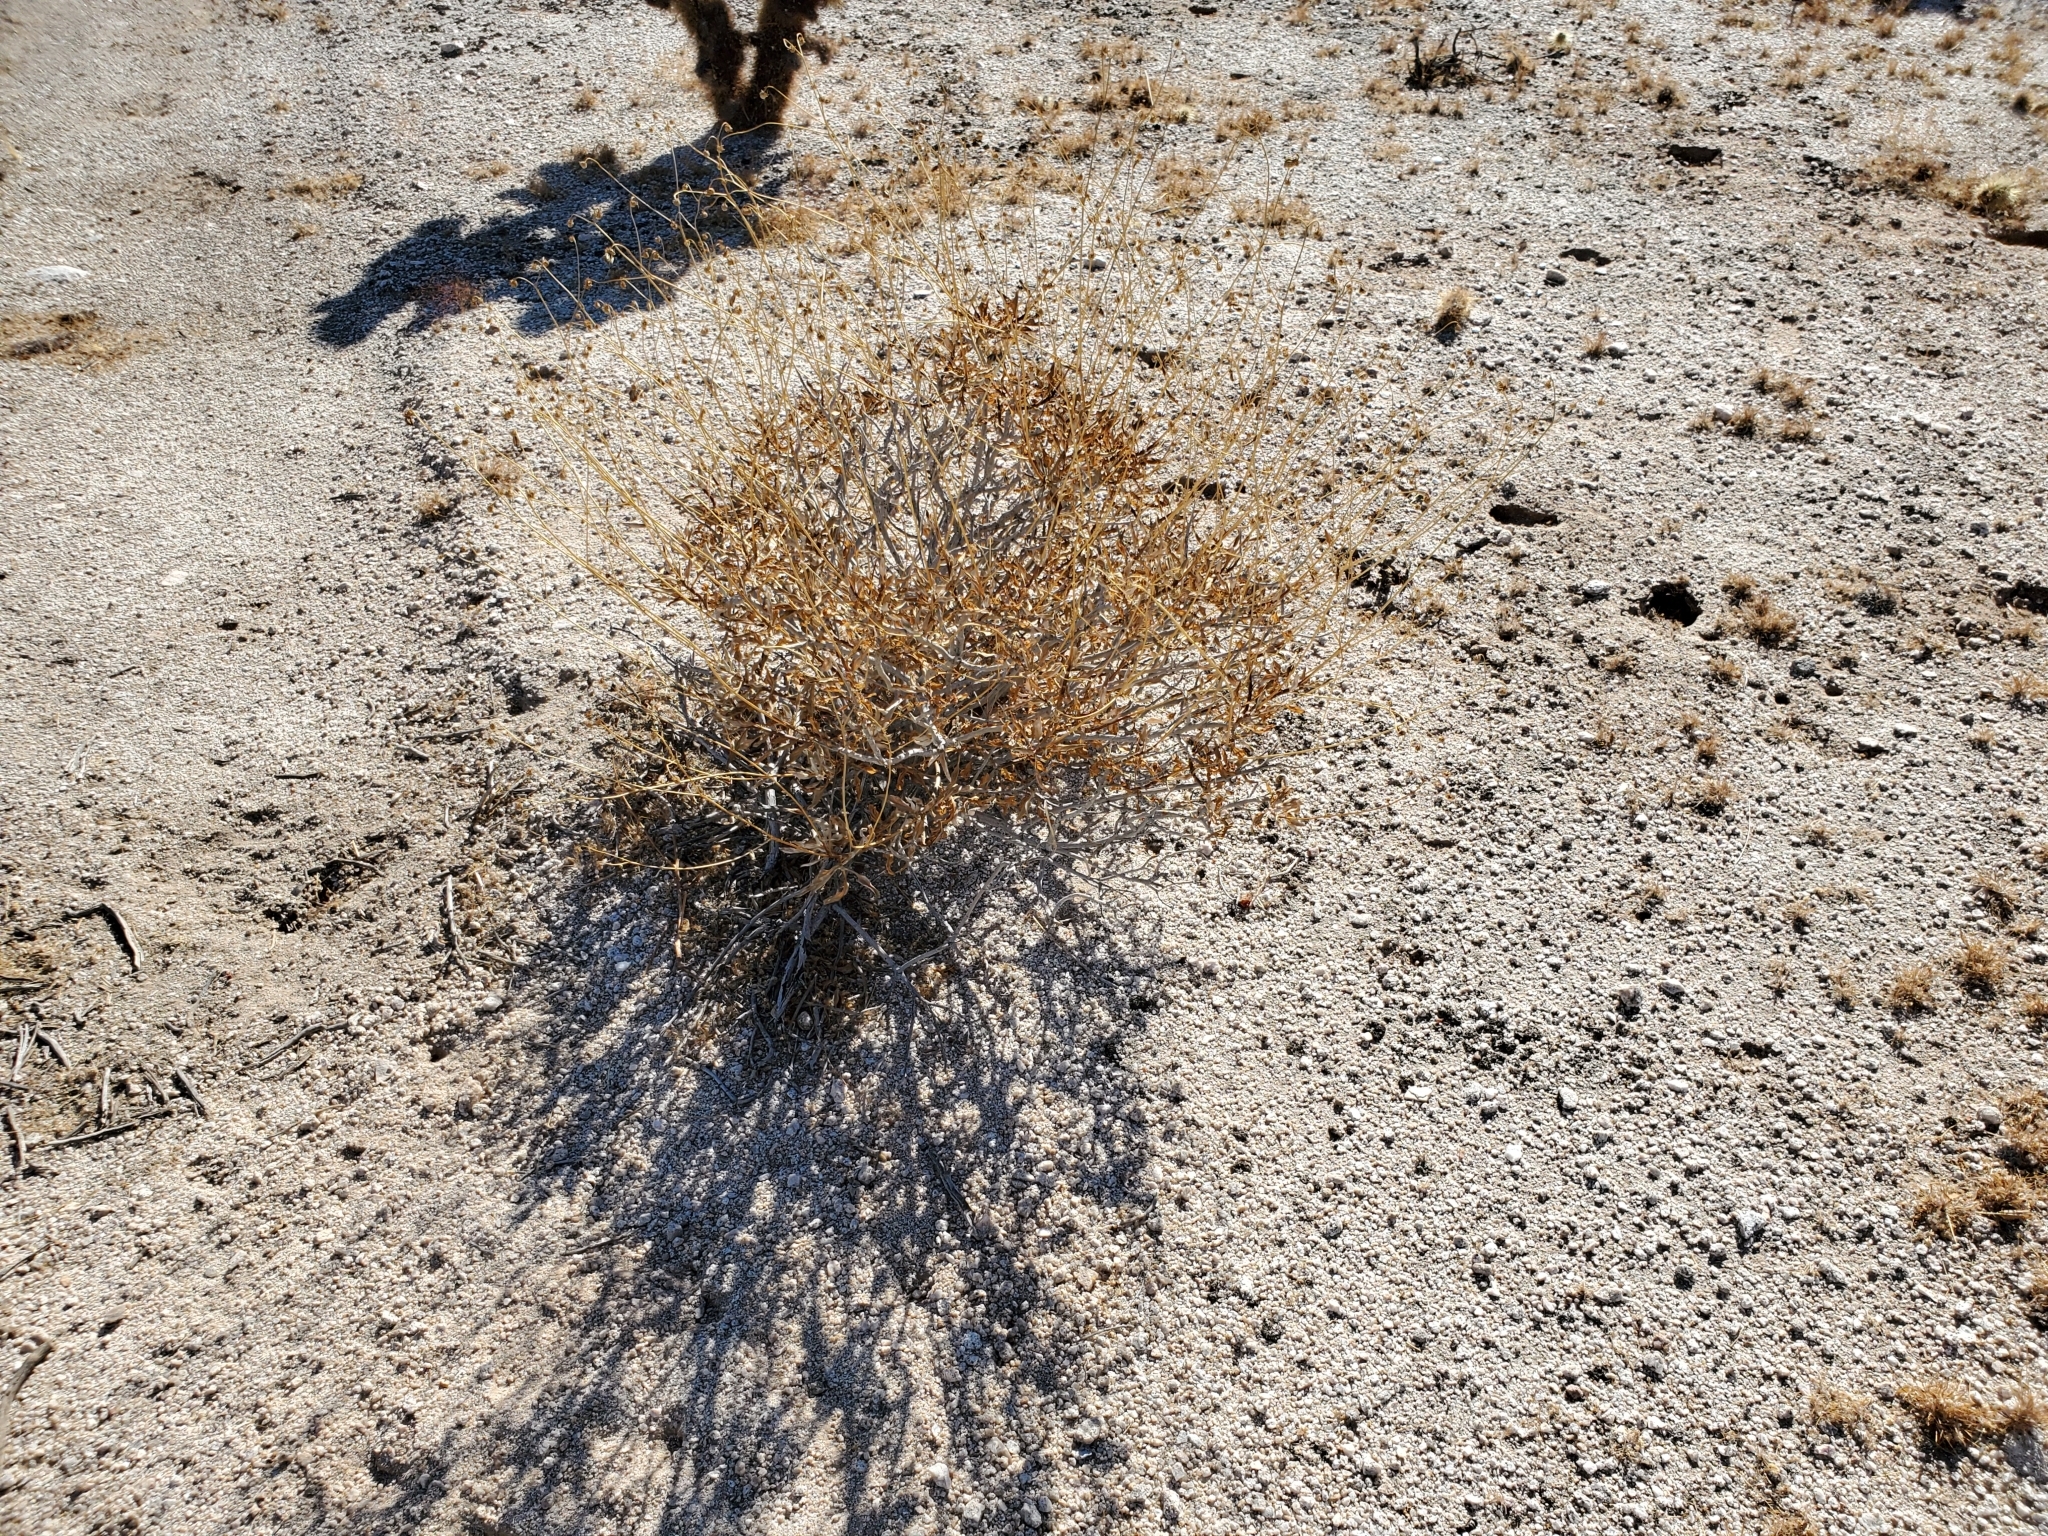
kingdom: Plantae
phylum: Tracheophyta
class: Magnoliopsida
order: Asterales
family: Asteraceae
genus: Encelia
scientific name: Encelia farinosa
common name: Brittlebush
